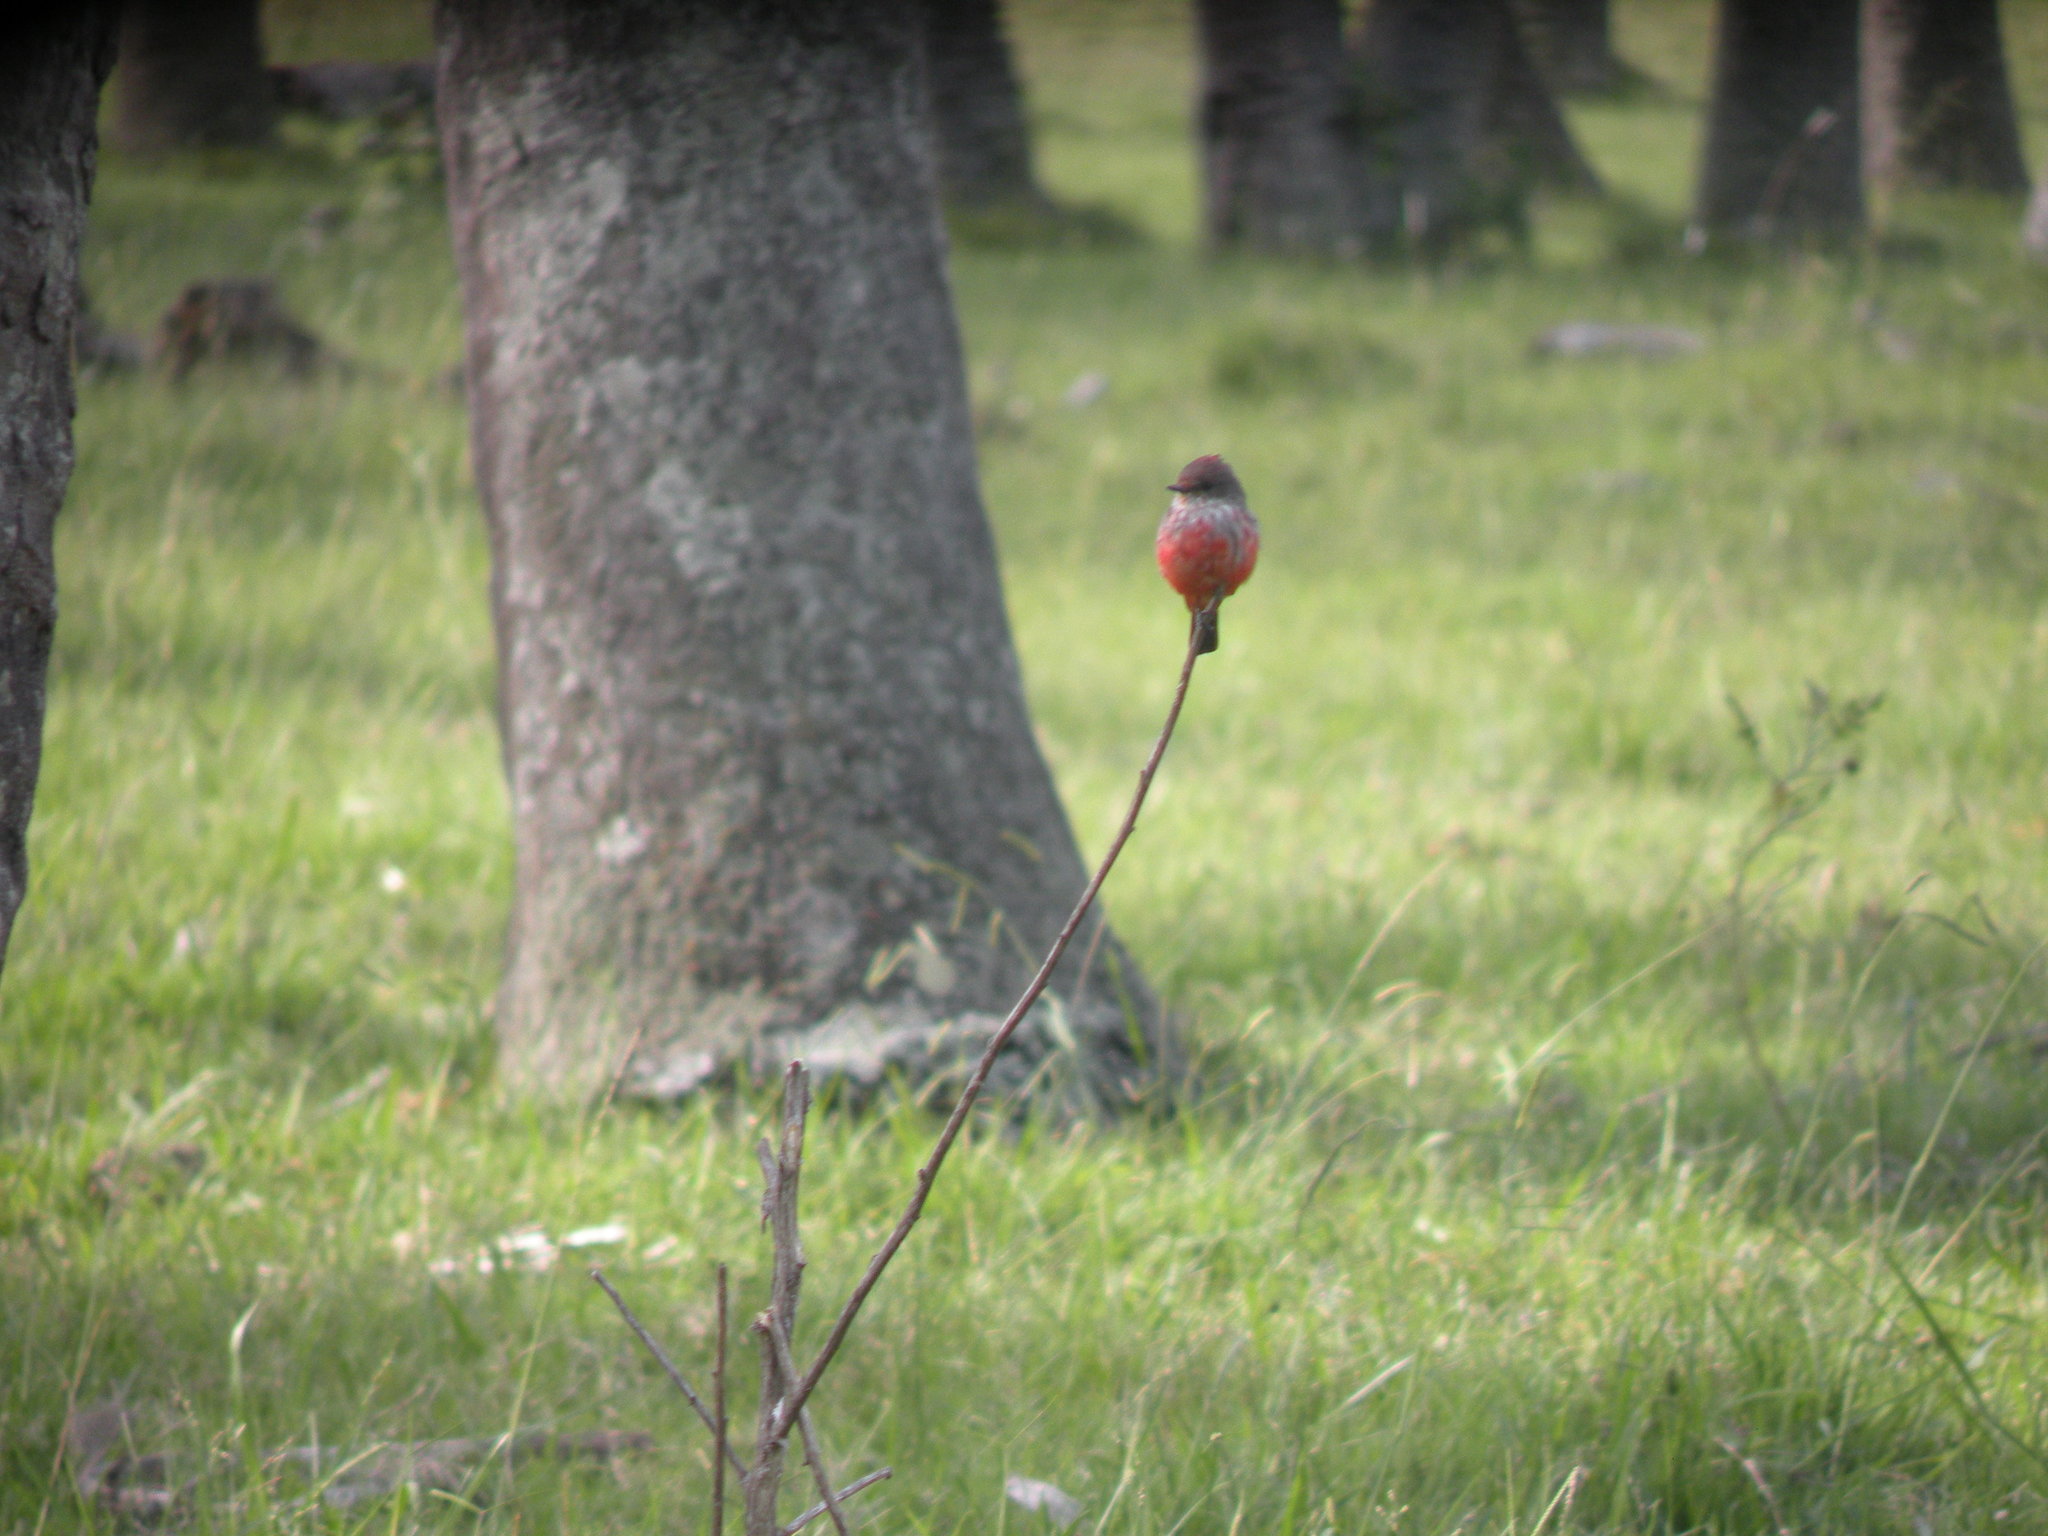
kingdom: Animalia
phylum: Chordata
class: Aves
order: Passeriformes
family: Tyrannidae
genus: Pyrocephalus
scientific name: Pyrocephalus rubinus
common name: Vermilion flycatcher
